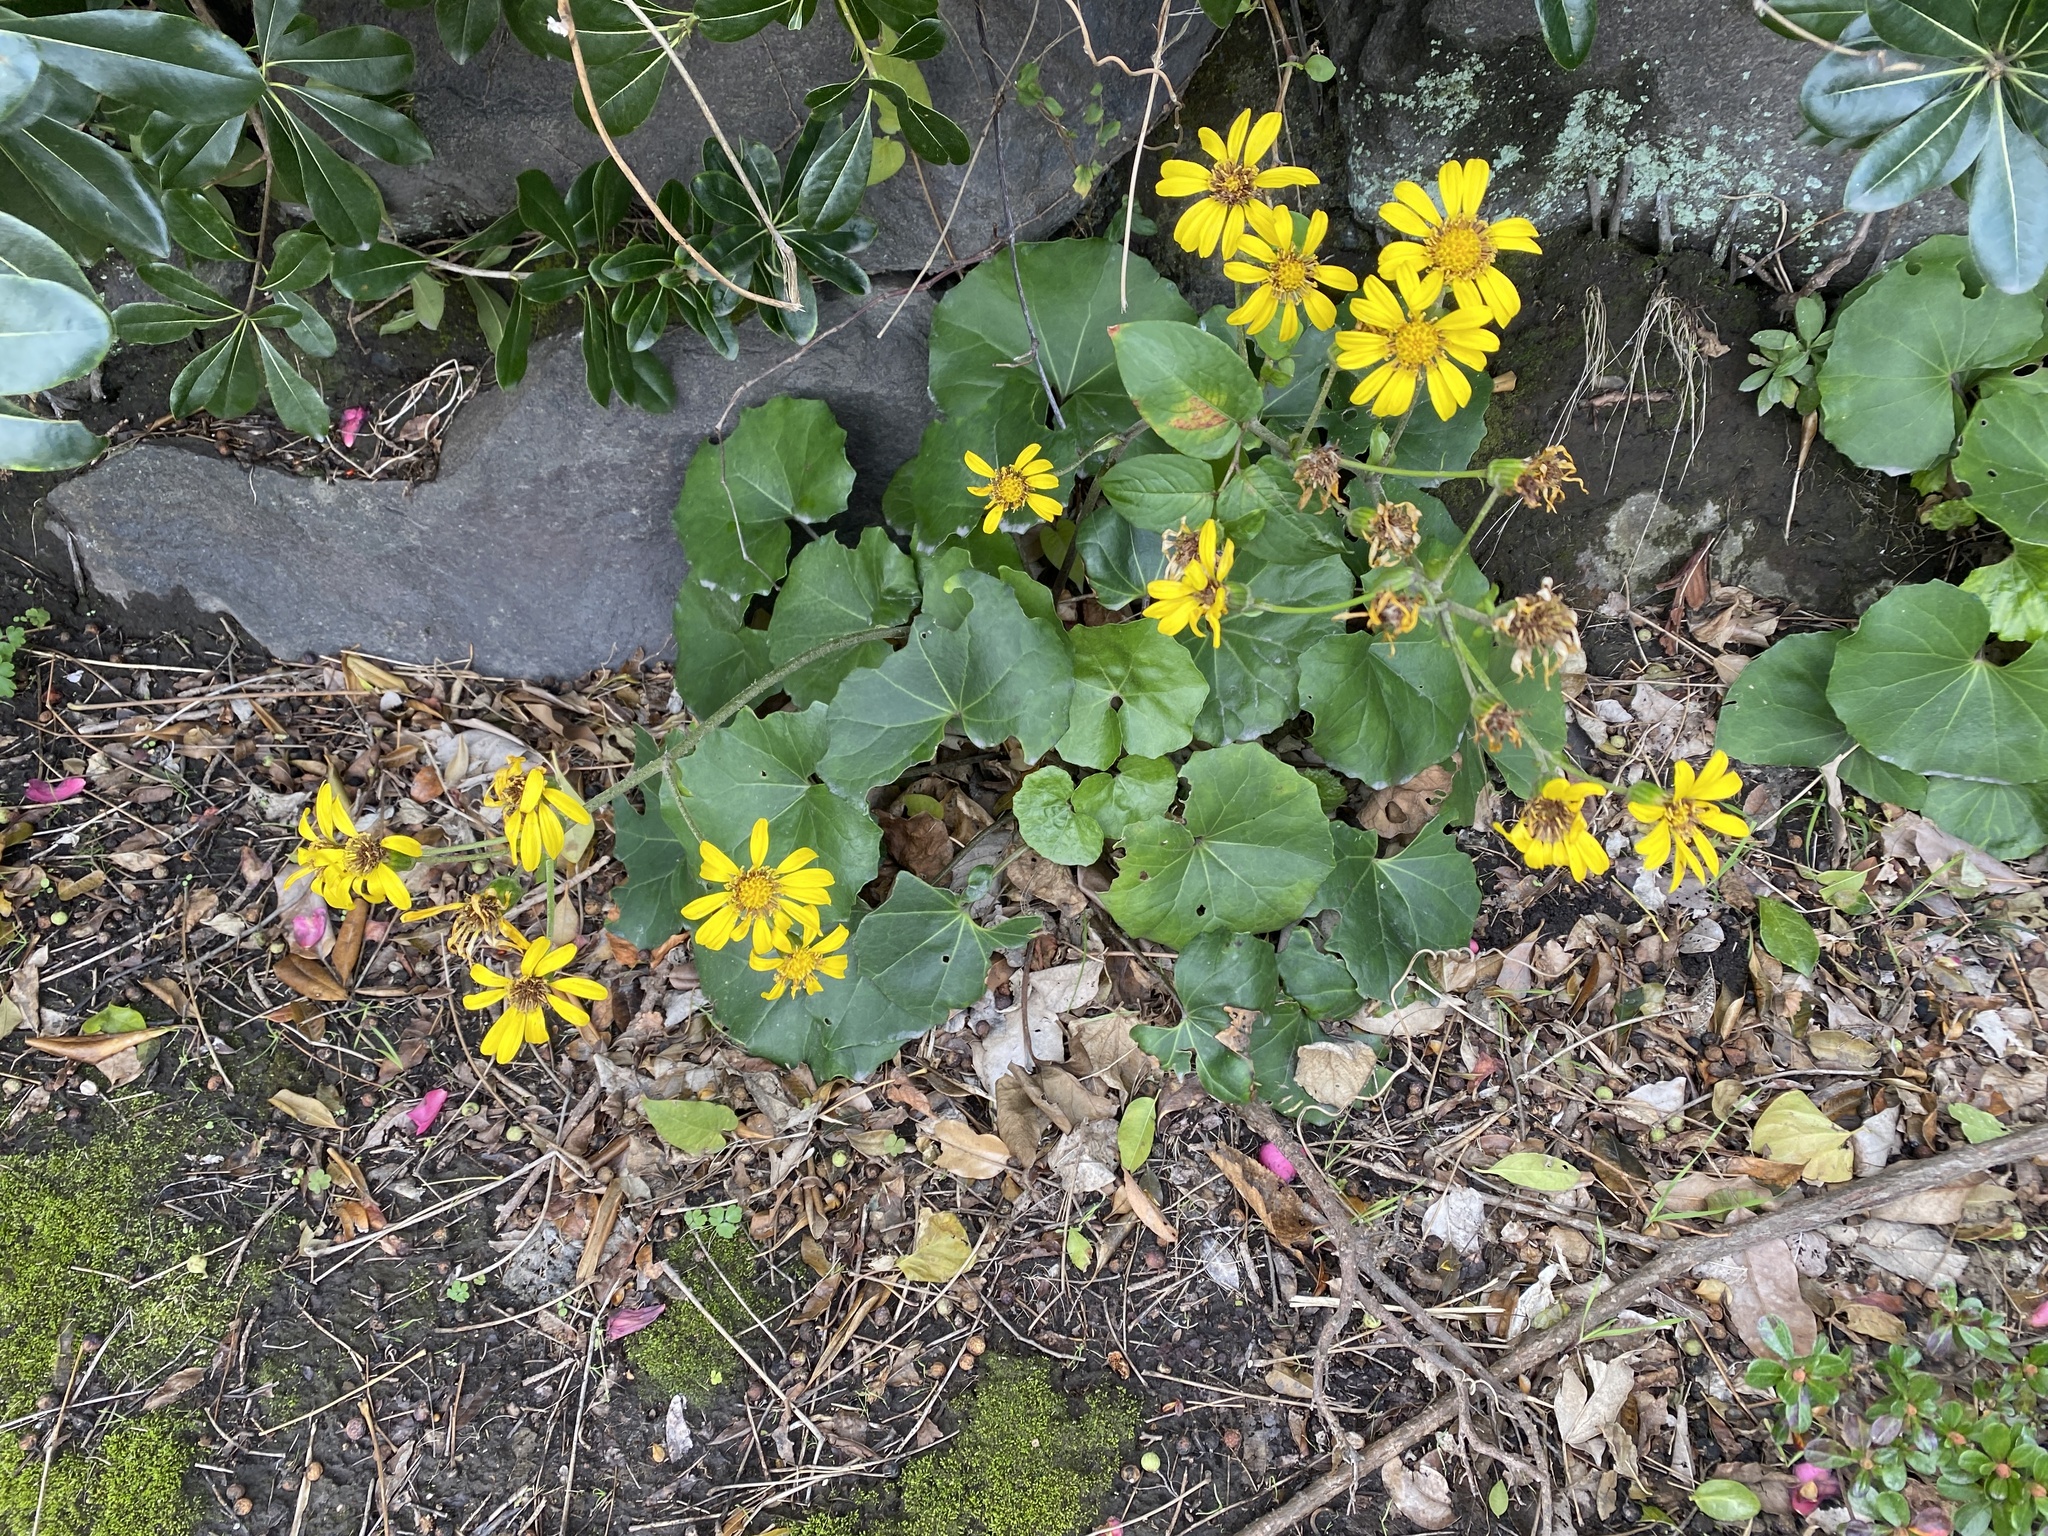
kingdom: Plantae
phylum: Tracheophyta
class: Magnoliopsida
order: Asterales
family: Asteraceae
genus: Farfugium
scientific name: Farfugium japonicum
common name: Leopardplant
